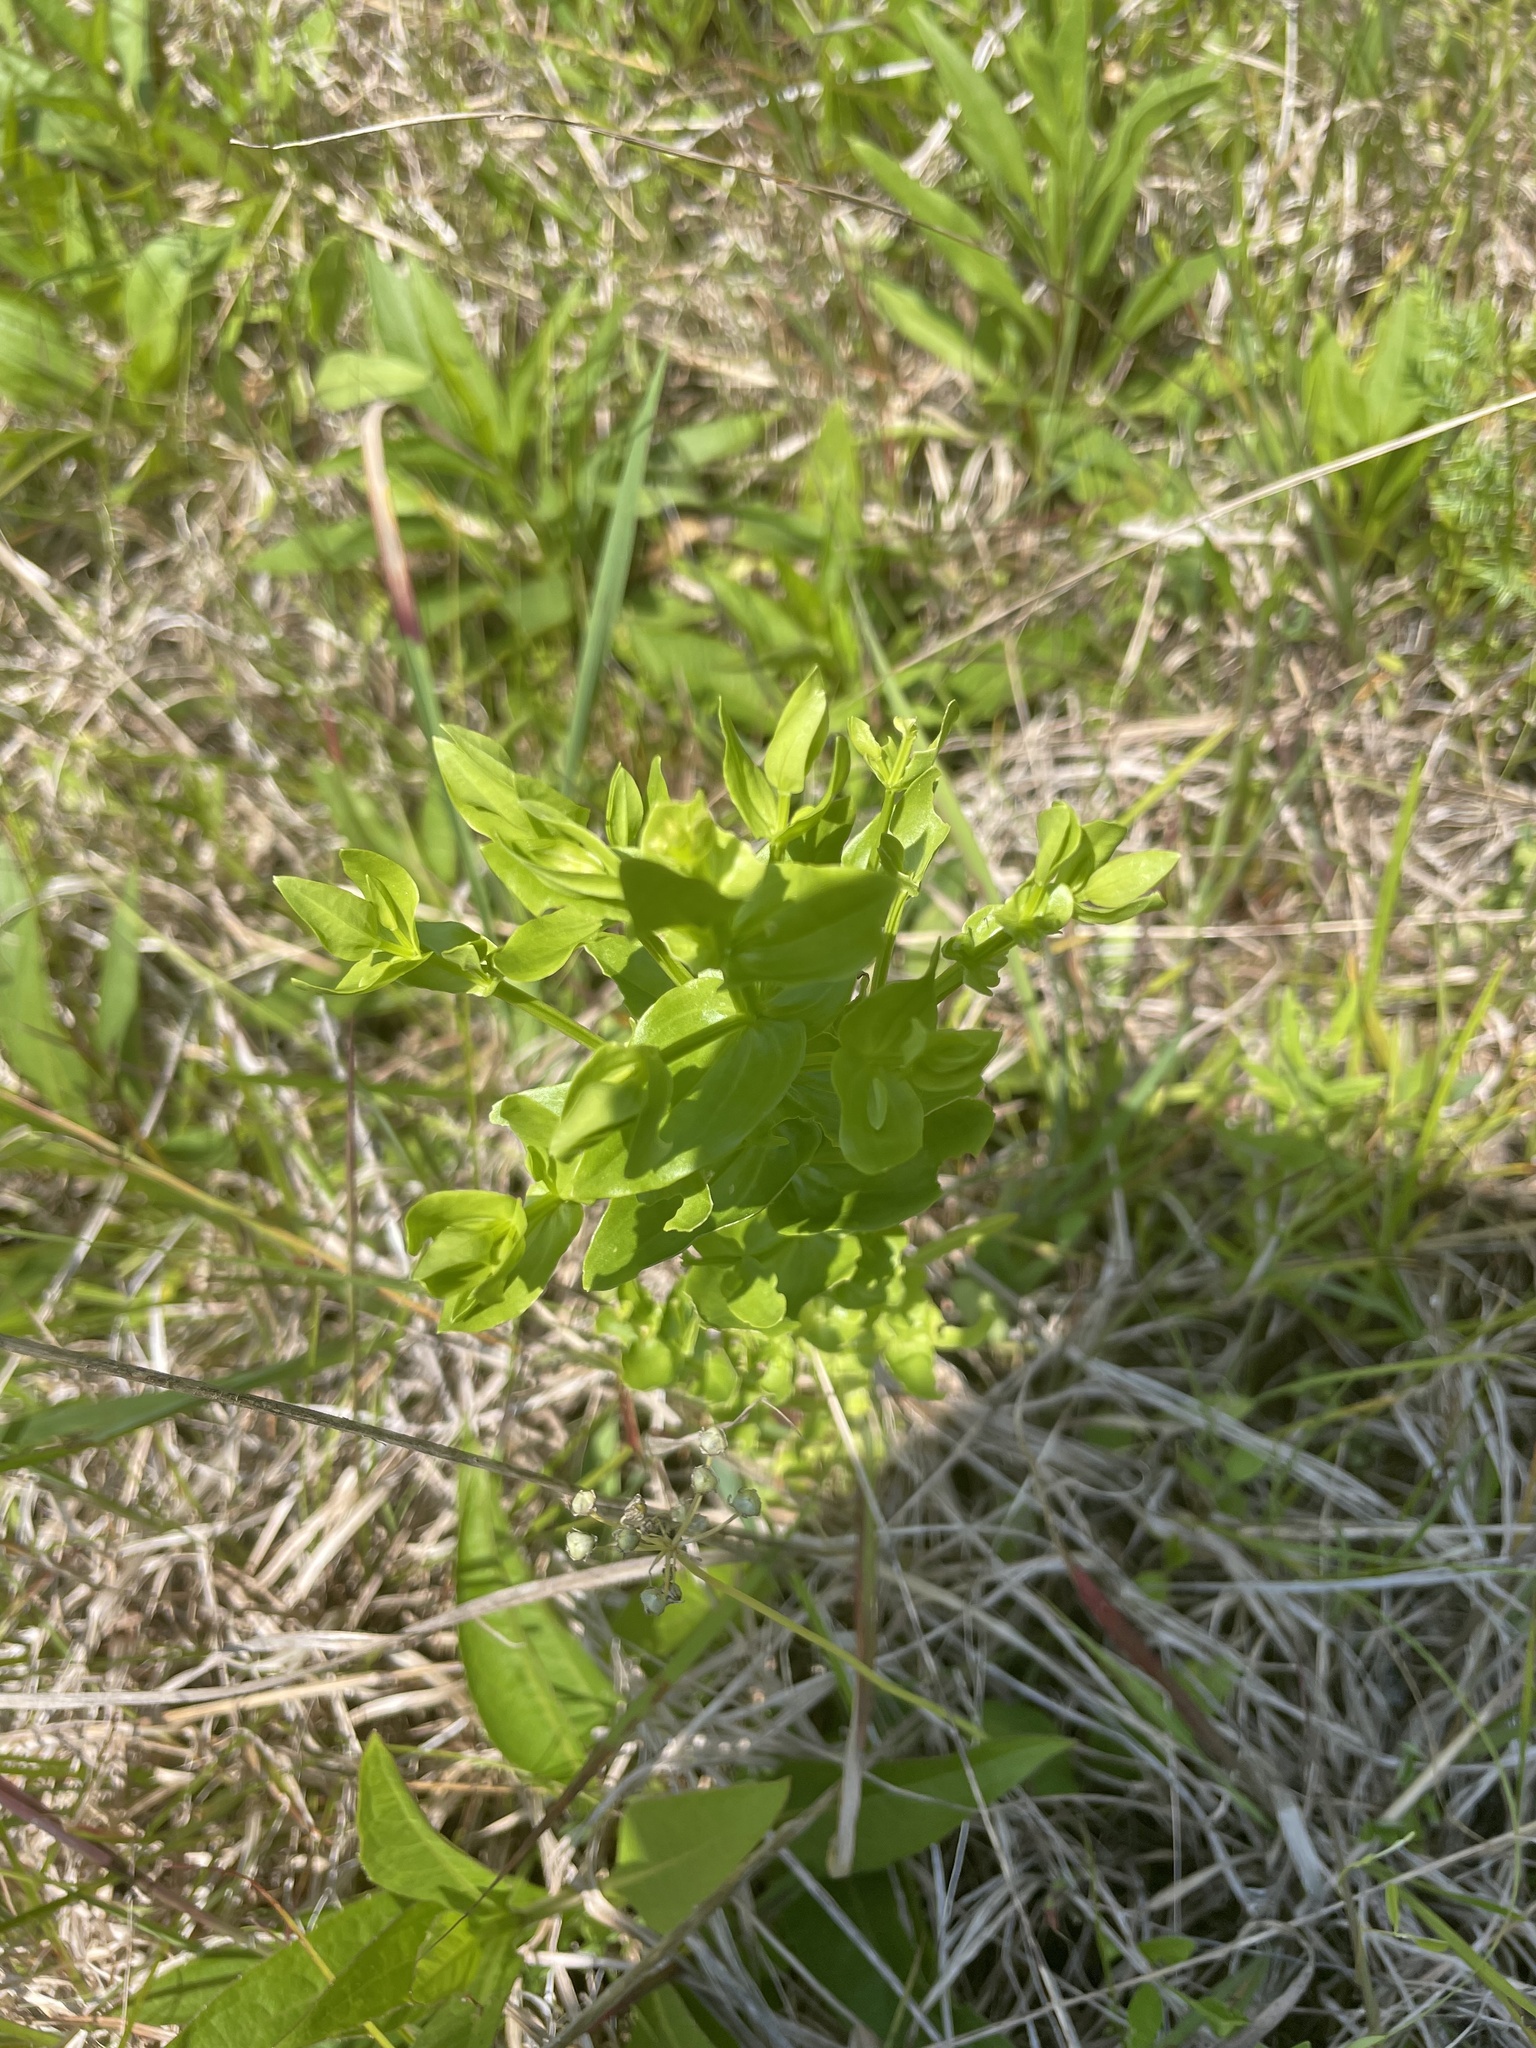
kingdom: Plantae
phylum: Tracheophyta
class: Magnoliopsida
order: Gentianales
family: Gentianaceae
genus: Sabatia
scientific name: Sabatia angularis
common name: Rose-pink
